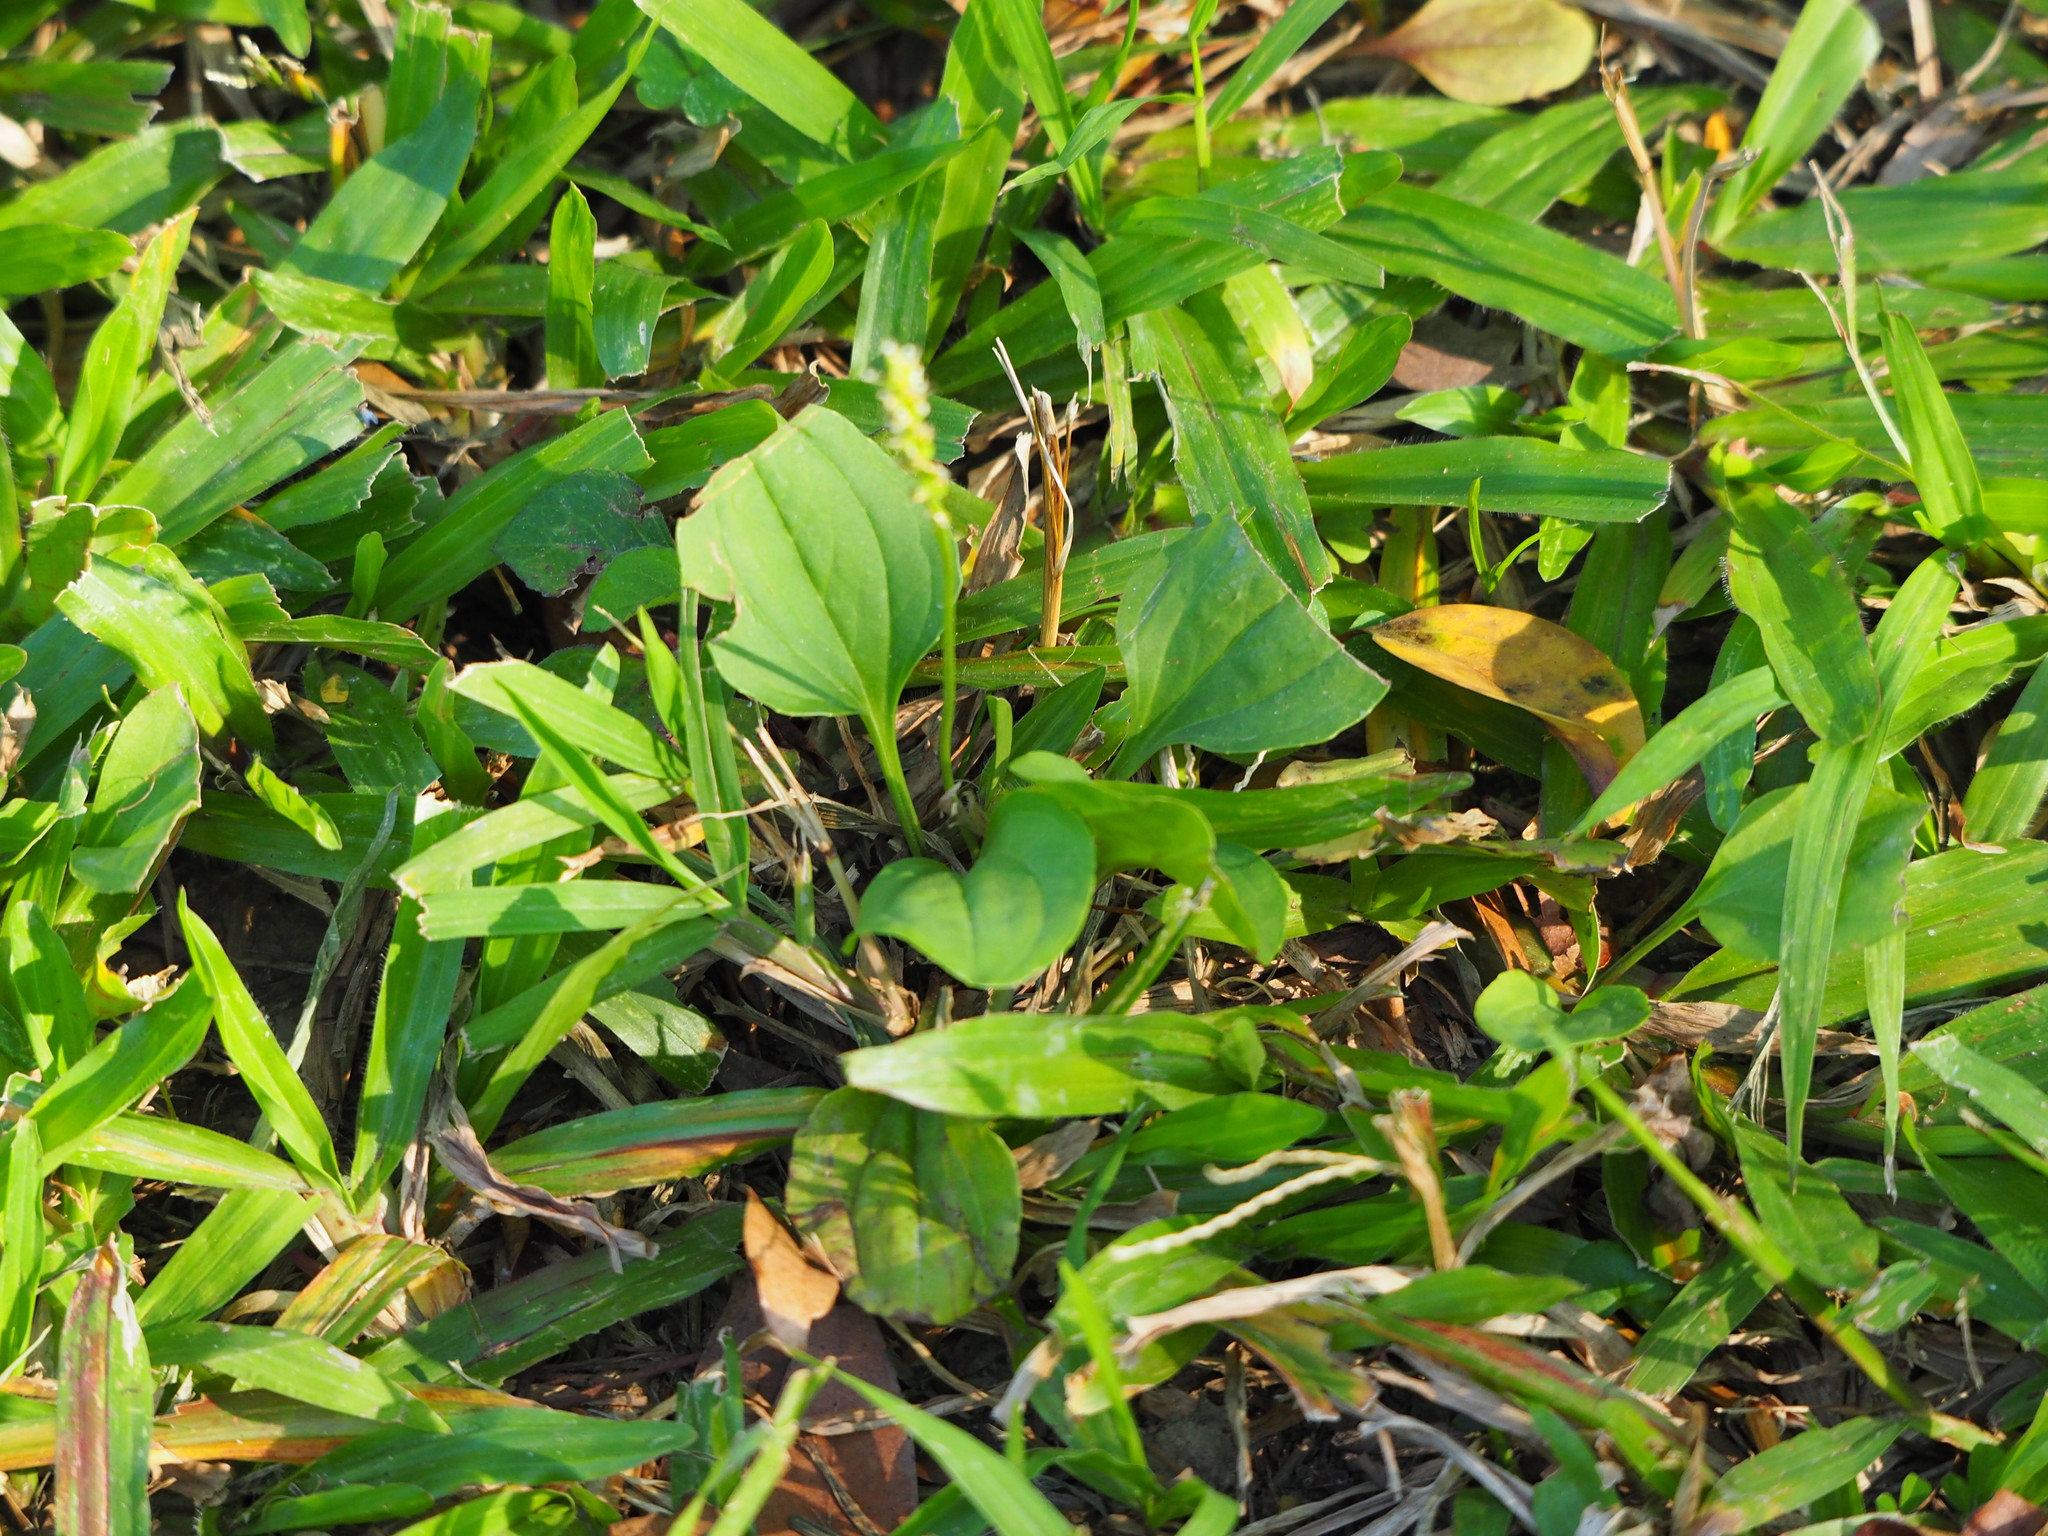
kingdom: Plantae
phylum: Tracheophyta
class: Magnoliopsida
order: Lamiales
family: Plantaginaceae
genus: Plantago
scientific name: Plantago asiatica
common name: Psyllium
